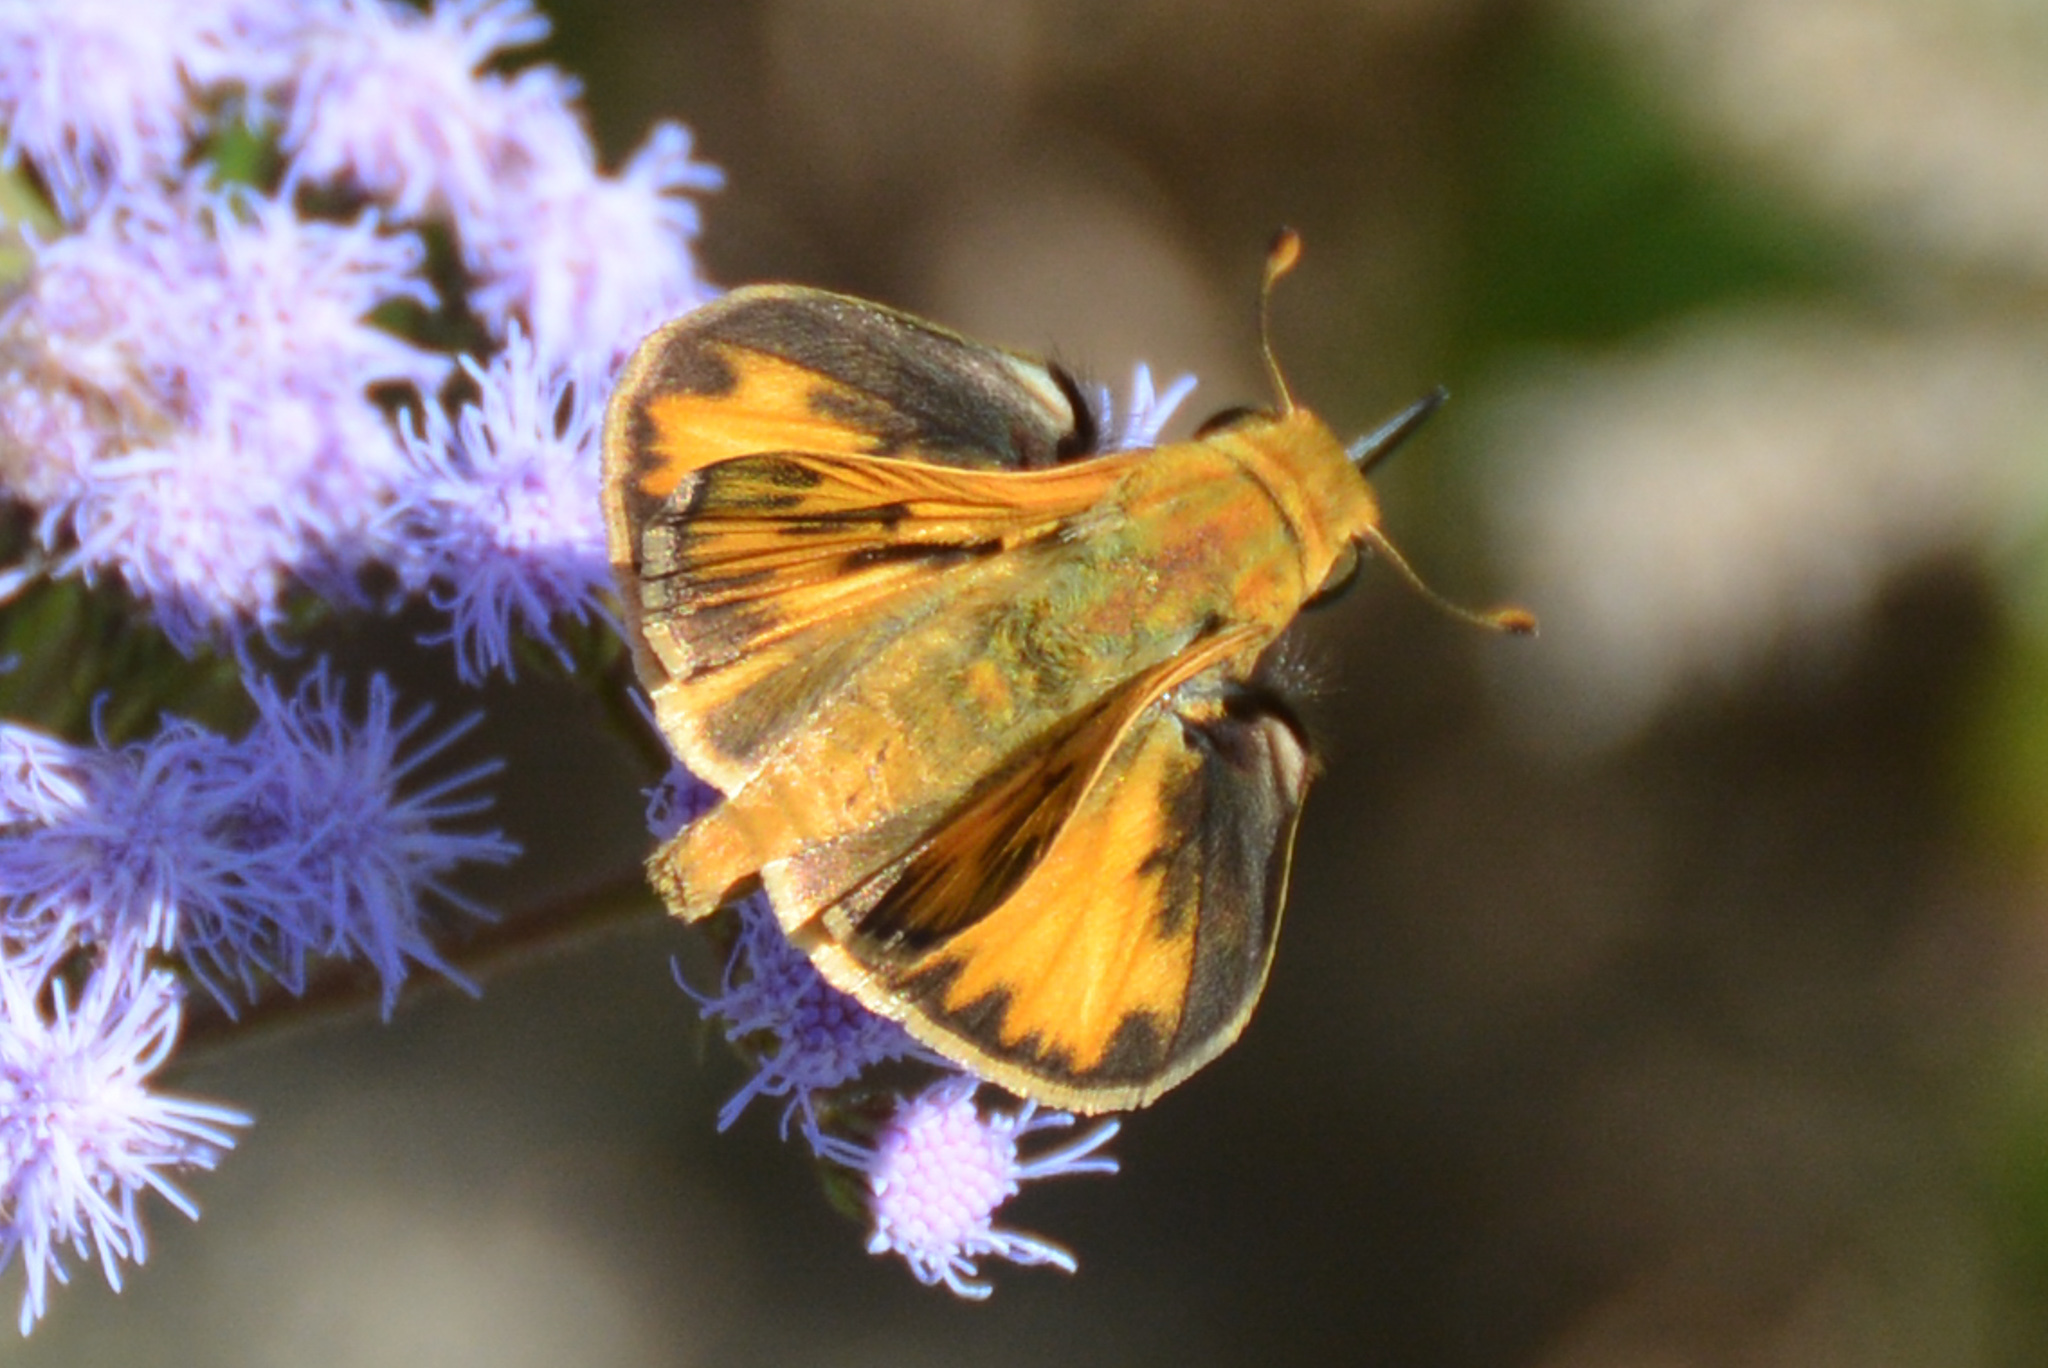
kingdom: Animalia
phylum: Arthropoda
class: Insecta
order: Lepidoptera
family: Hesperiidae
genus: Hylephila
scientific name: Hylephila phyleus
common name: Fiery skipper
